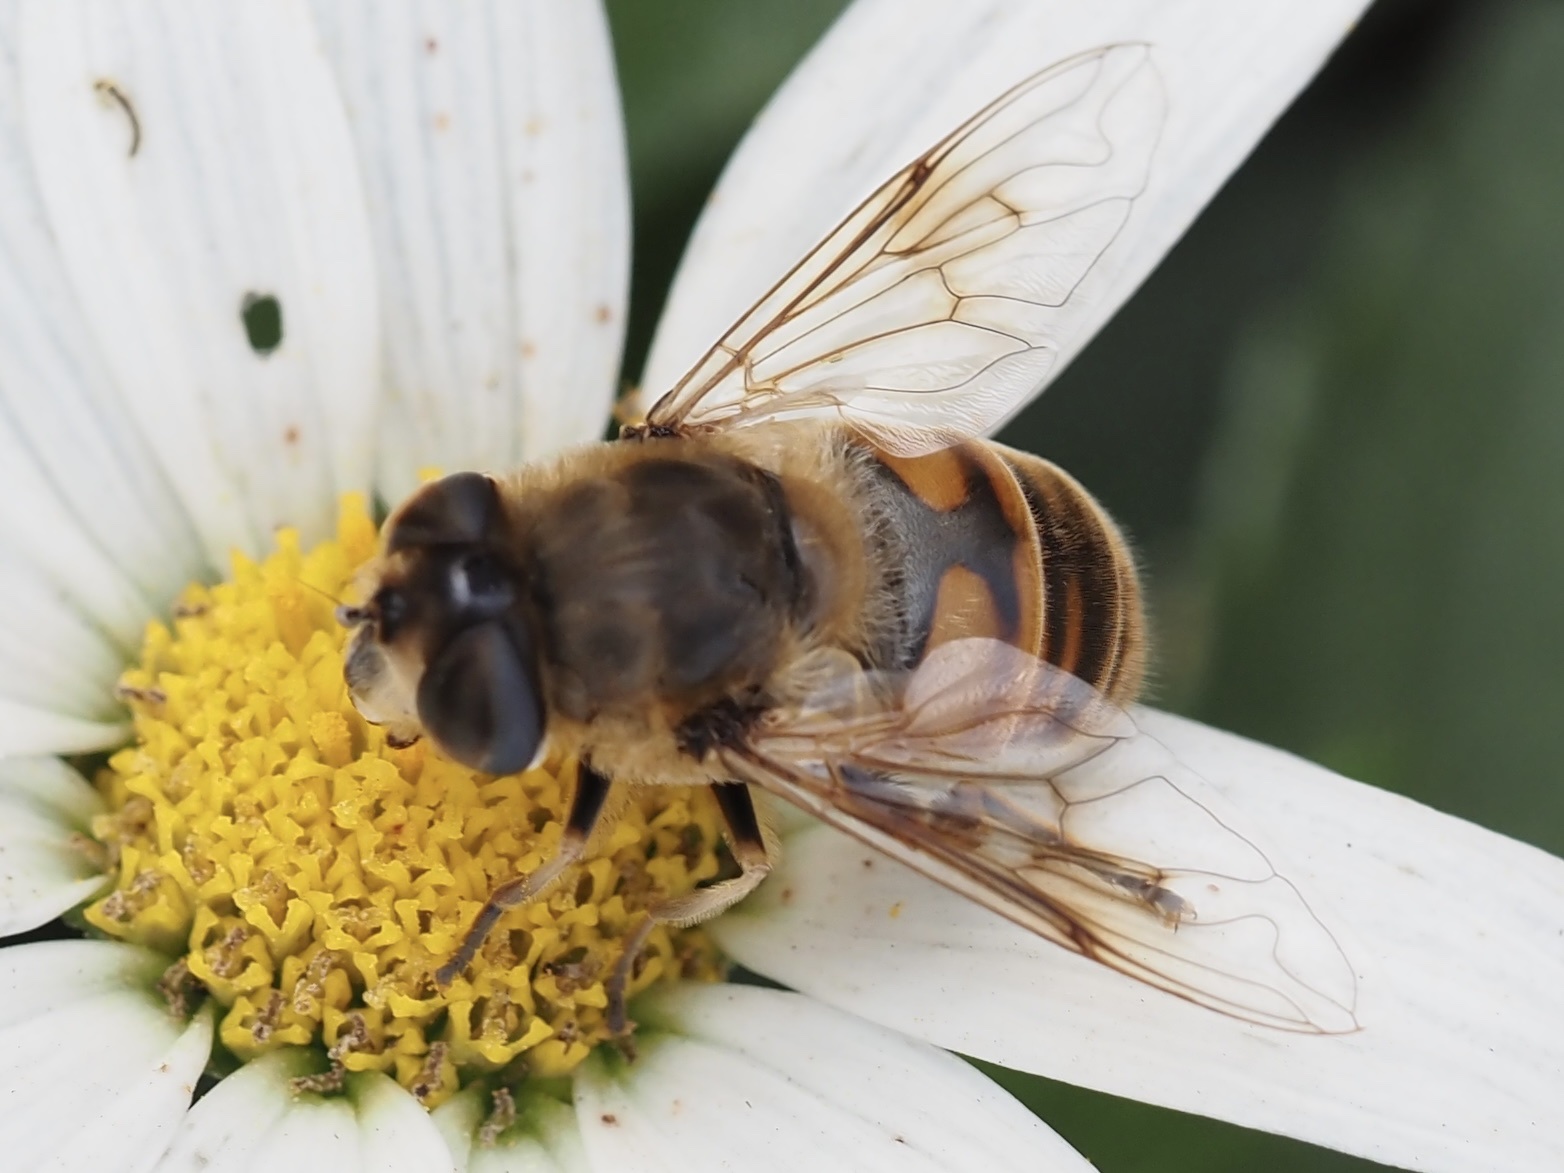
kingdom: Animalia
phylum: Arthropoda
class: Insecta
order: Diptera
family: Syrphidae
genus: Eristalis
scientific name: Eristalis tenax
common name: Drone fly
